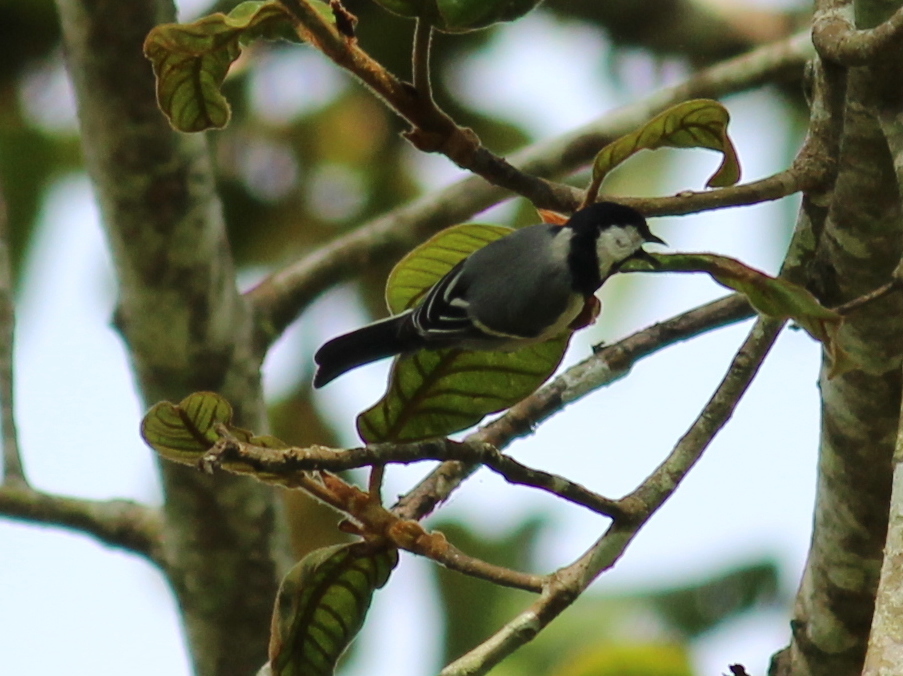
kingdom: Animalia
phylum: Chordata
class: Aves
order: Passeriformes
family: Paridae
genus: Parus
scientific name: Parus cinereus
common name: Cinereous tit
